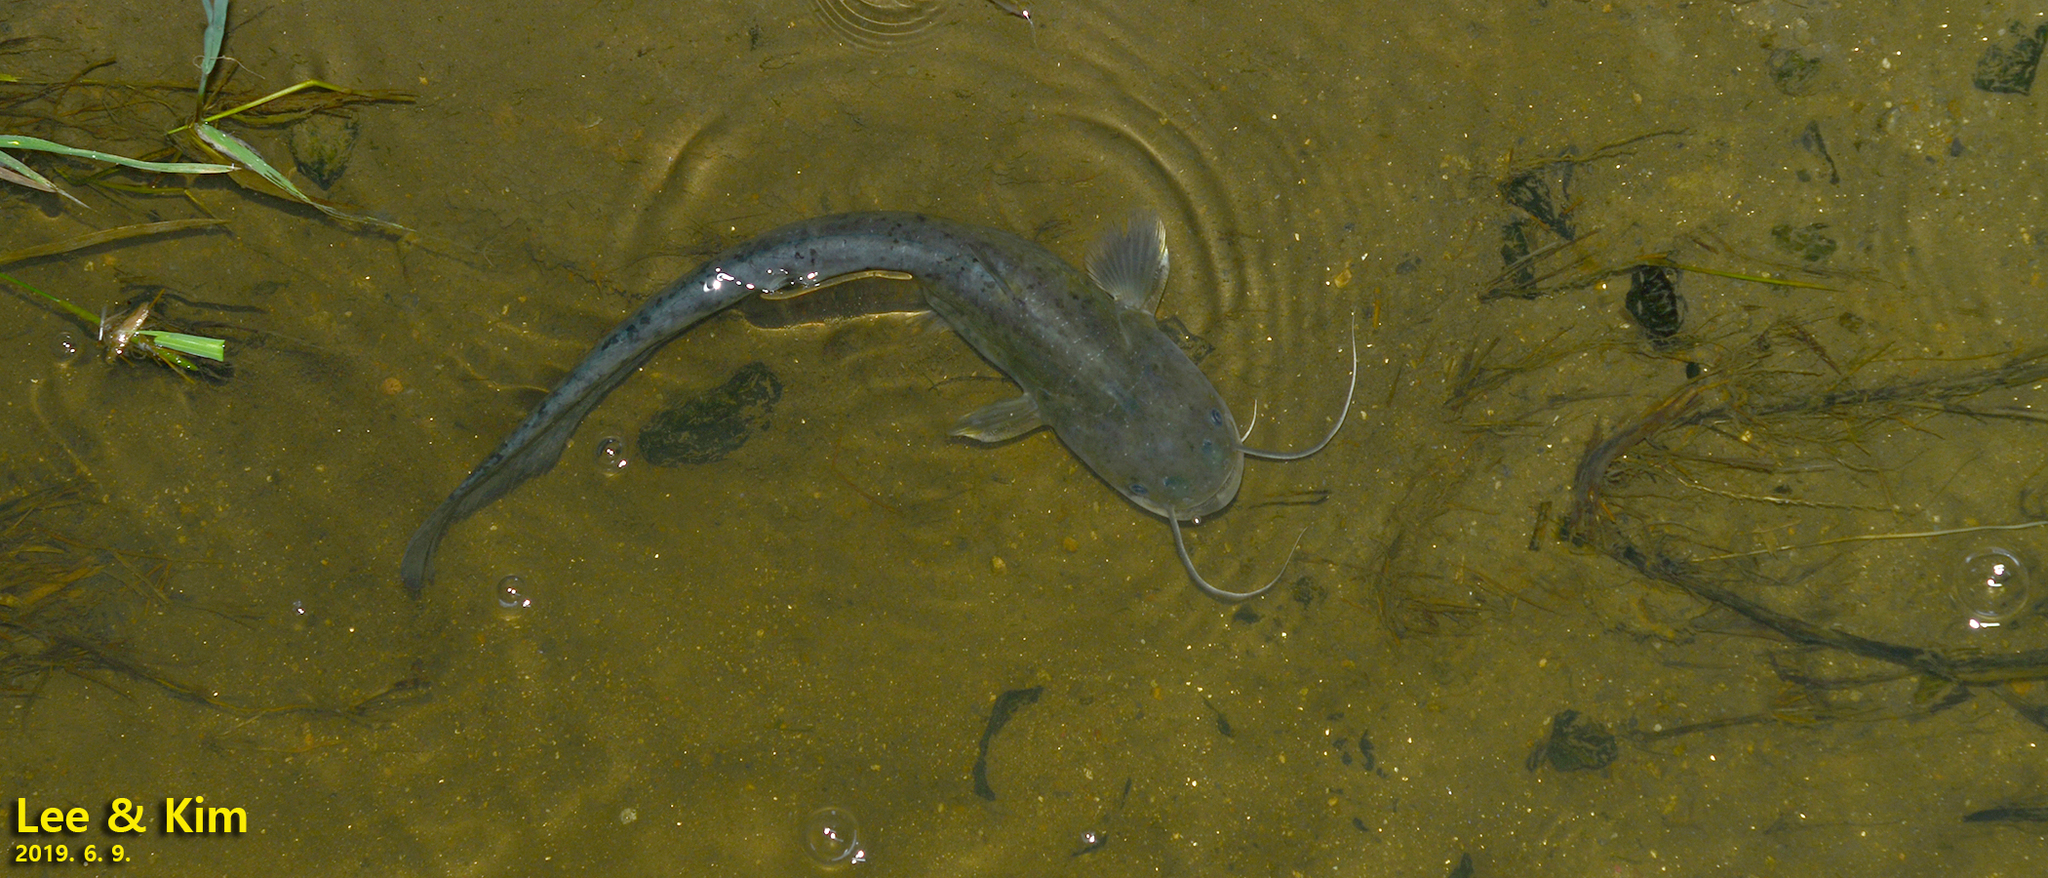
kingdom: Animalia
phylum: Chordata
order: Siluriformes
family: Siluridae
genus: Silurus
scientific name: Silurus asotus
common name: Amur catfish
